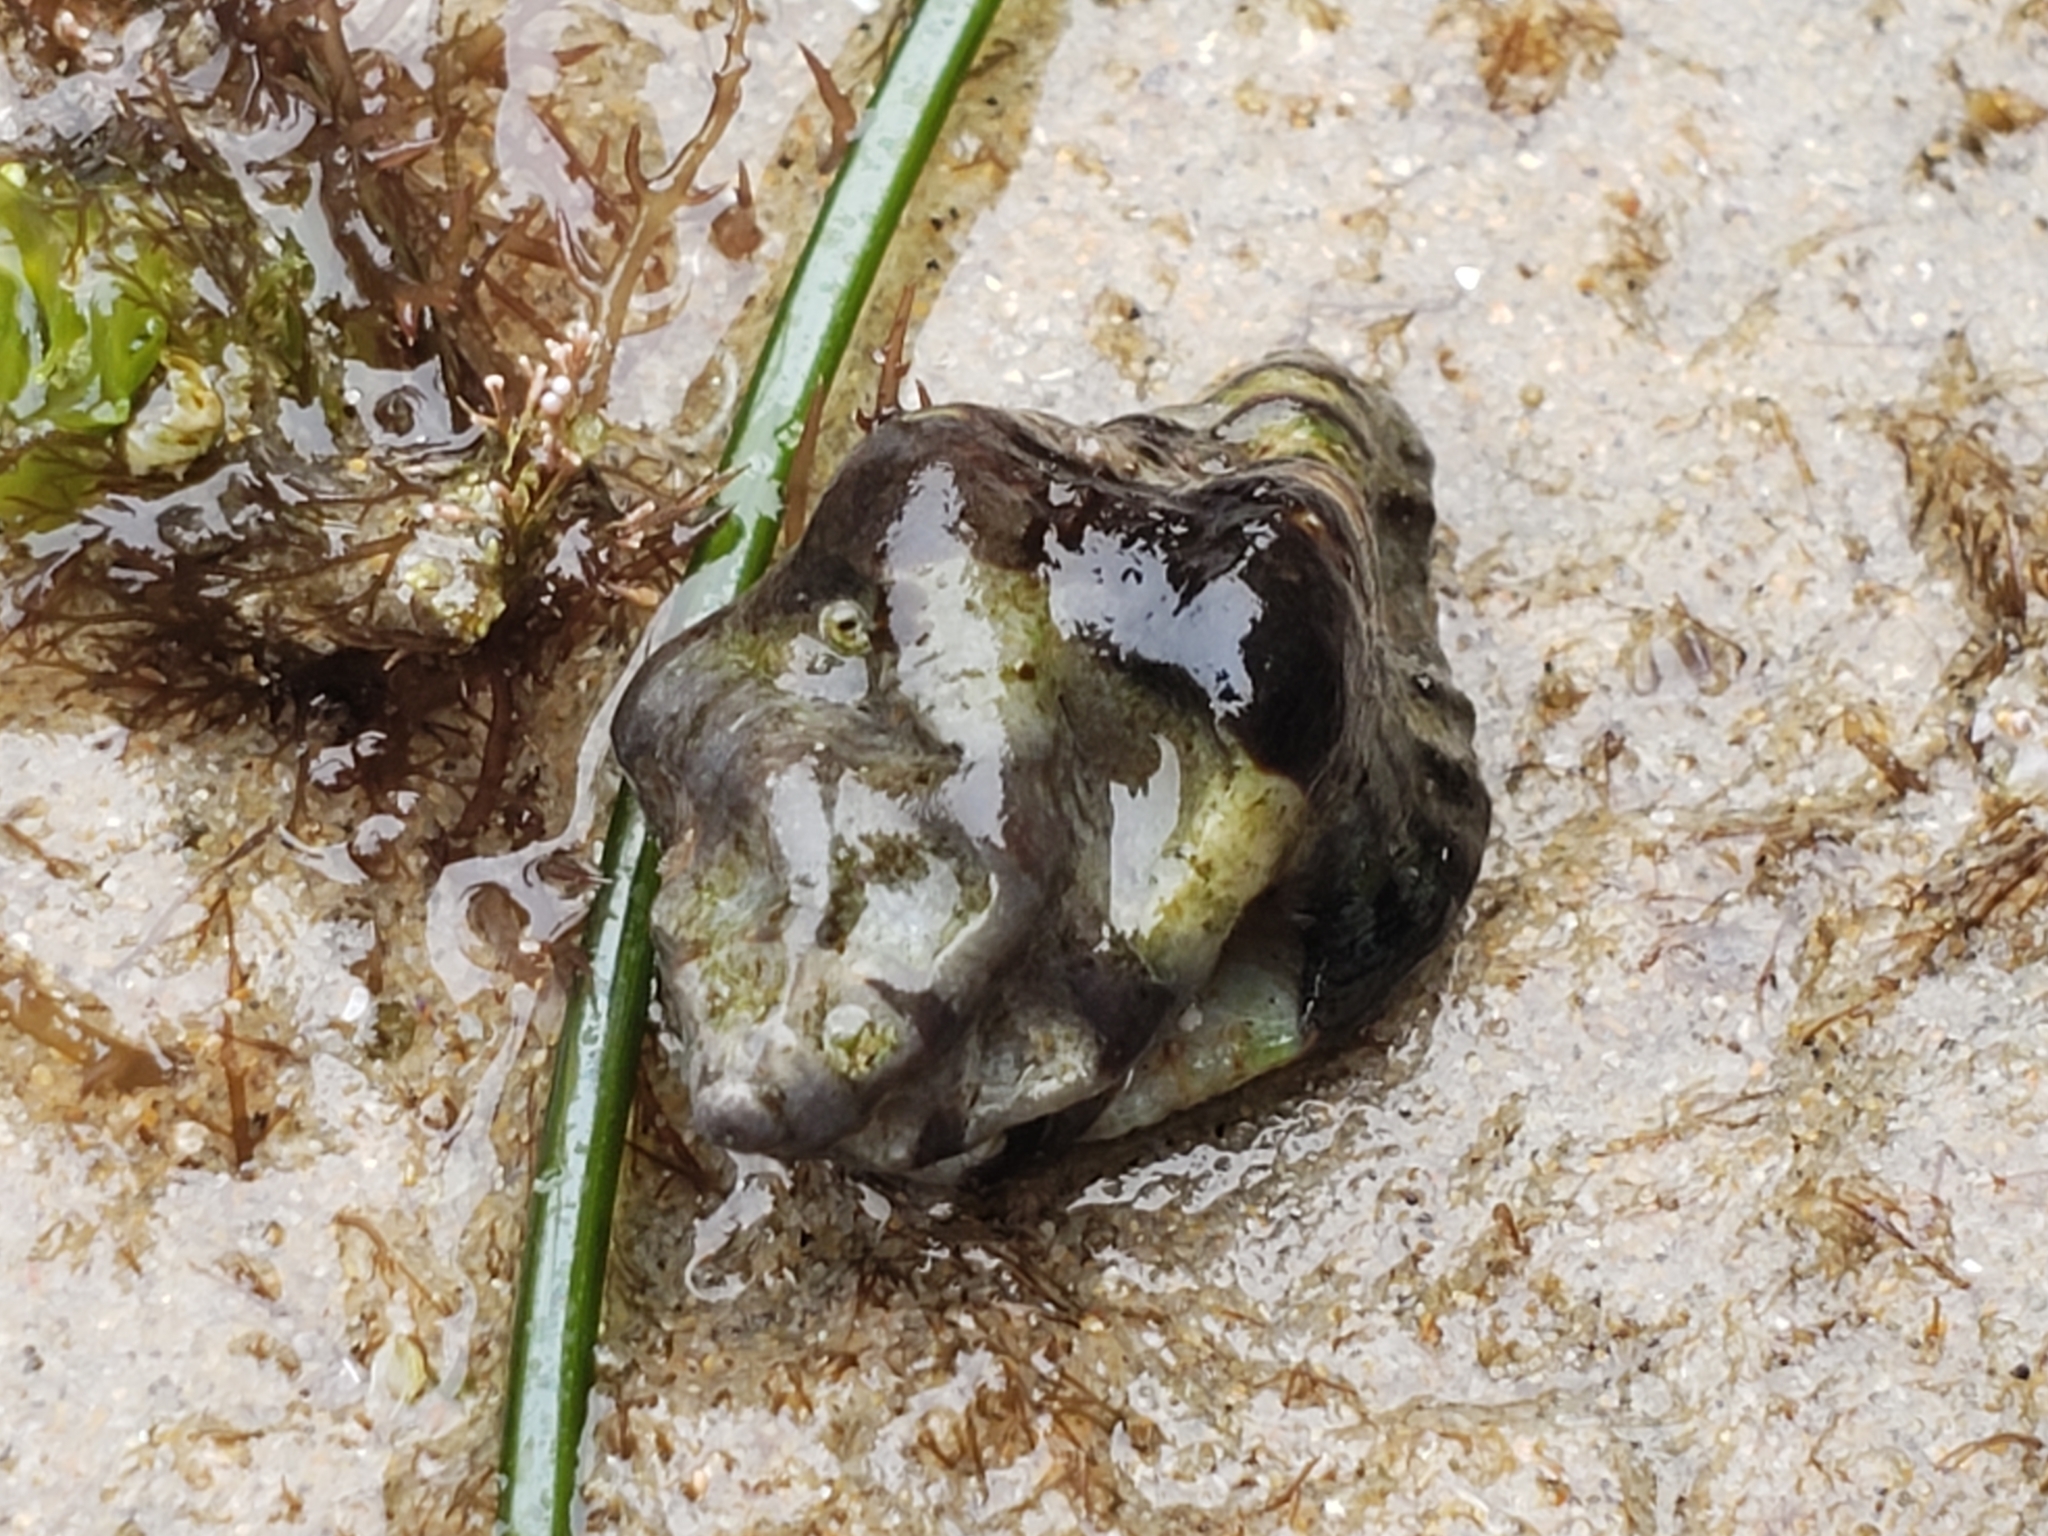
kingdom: Animalia
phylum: Mollusca
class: Gastropoda
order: Neogastropoda
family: Muricidae
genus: Maxwellia
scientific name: Maxwellia gemma
